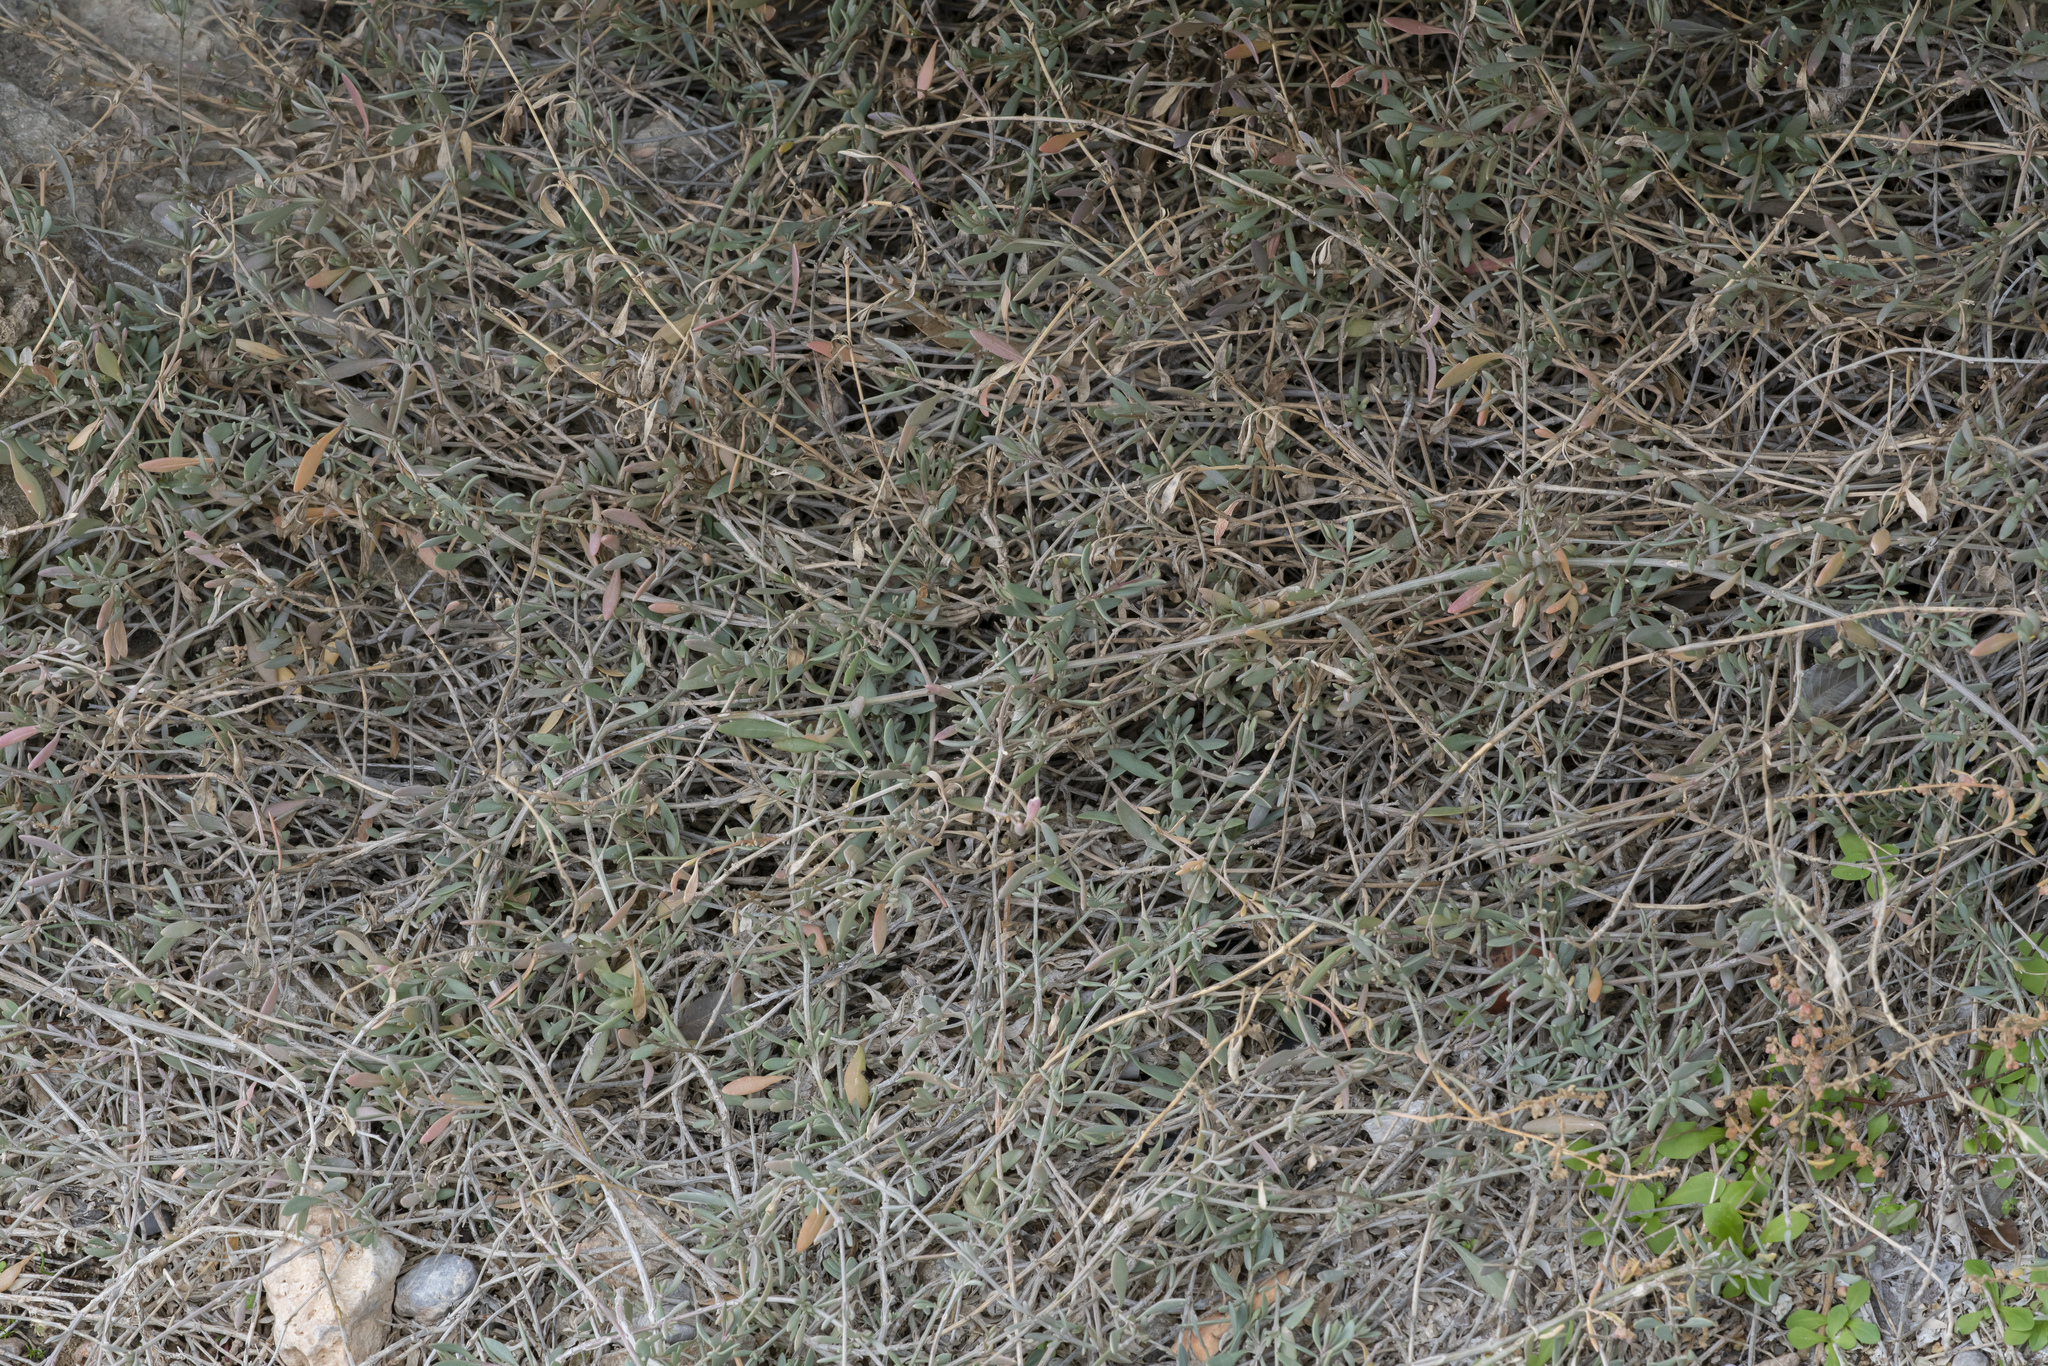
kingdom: Plantae
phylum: Tracheophyta
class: Magnoliopsida
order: Caryophyllales
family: Amaranthaceae
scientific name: Amaranthaceae
